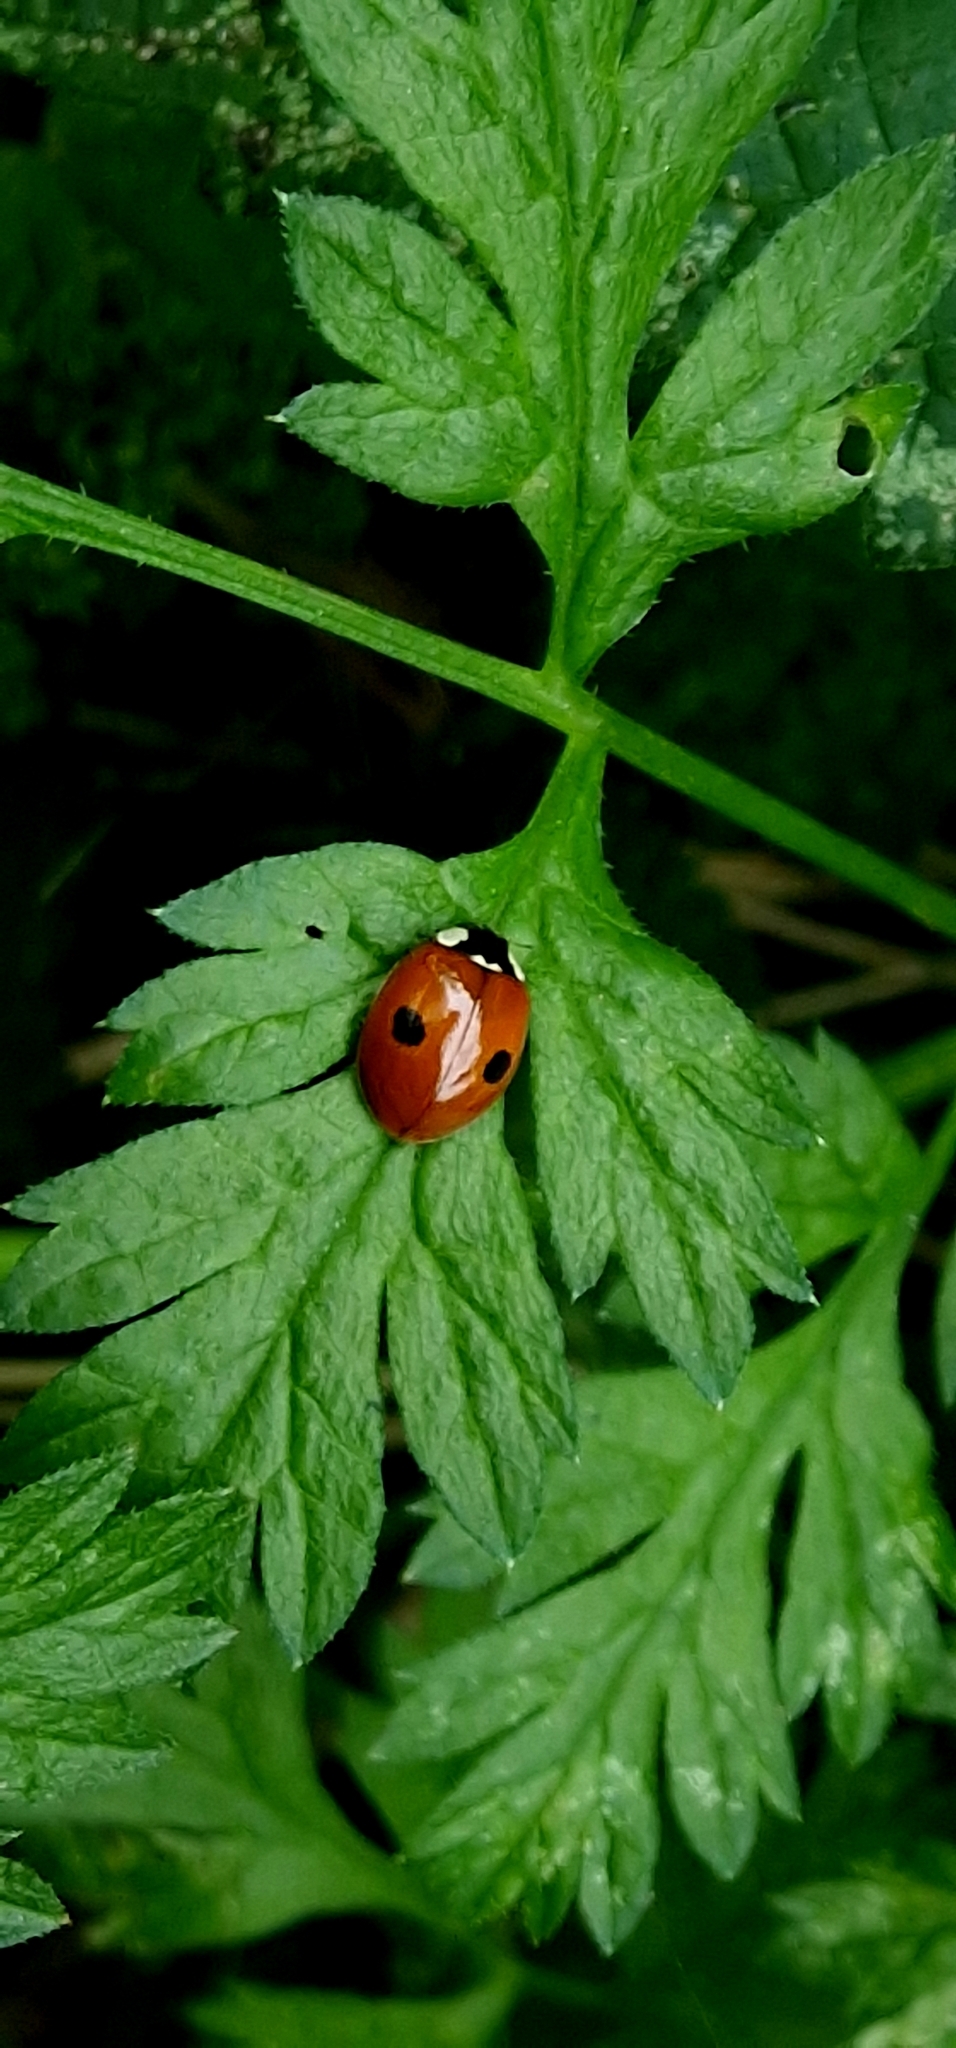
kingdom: Animalia
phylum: Arthropoda
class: Insecta
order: Coleoptera
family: Coccinellidae
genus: Adalia
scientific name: Adalia bipunctata
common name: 2-spot ladybird
